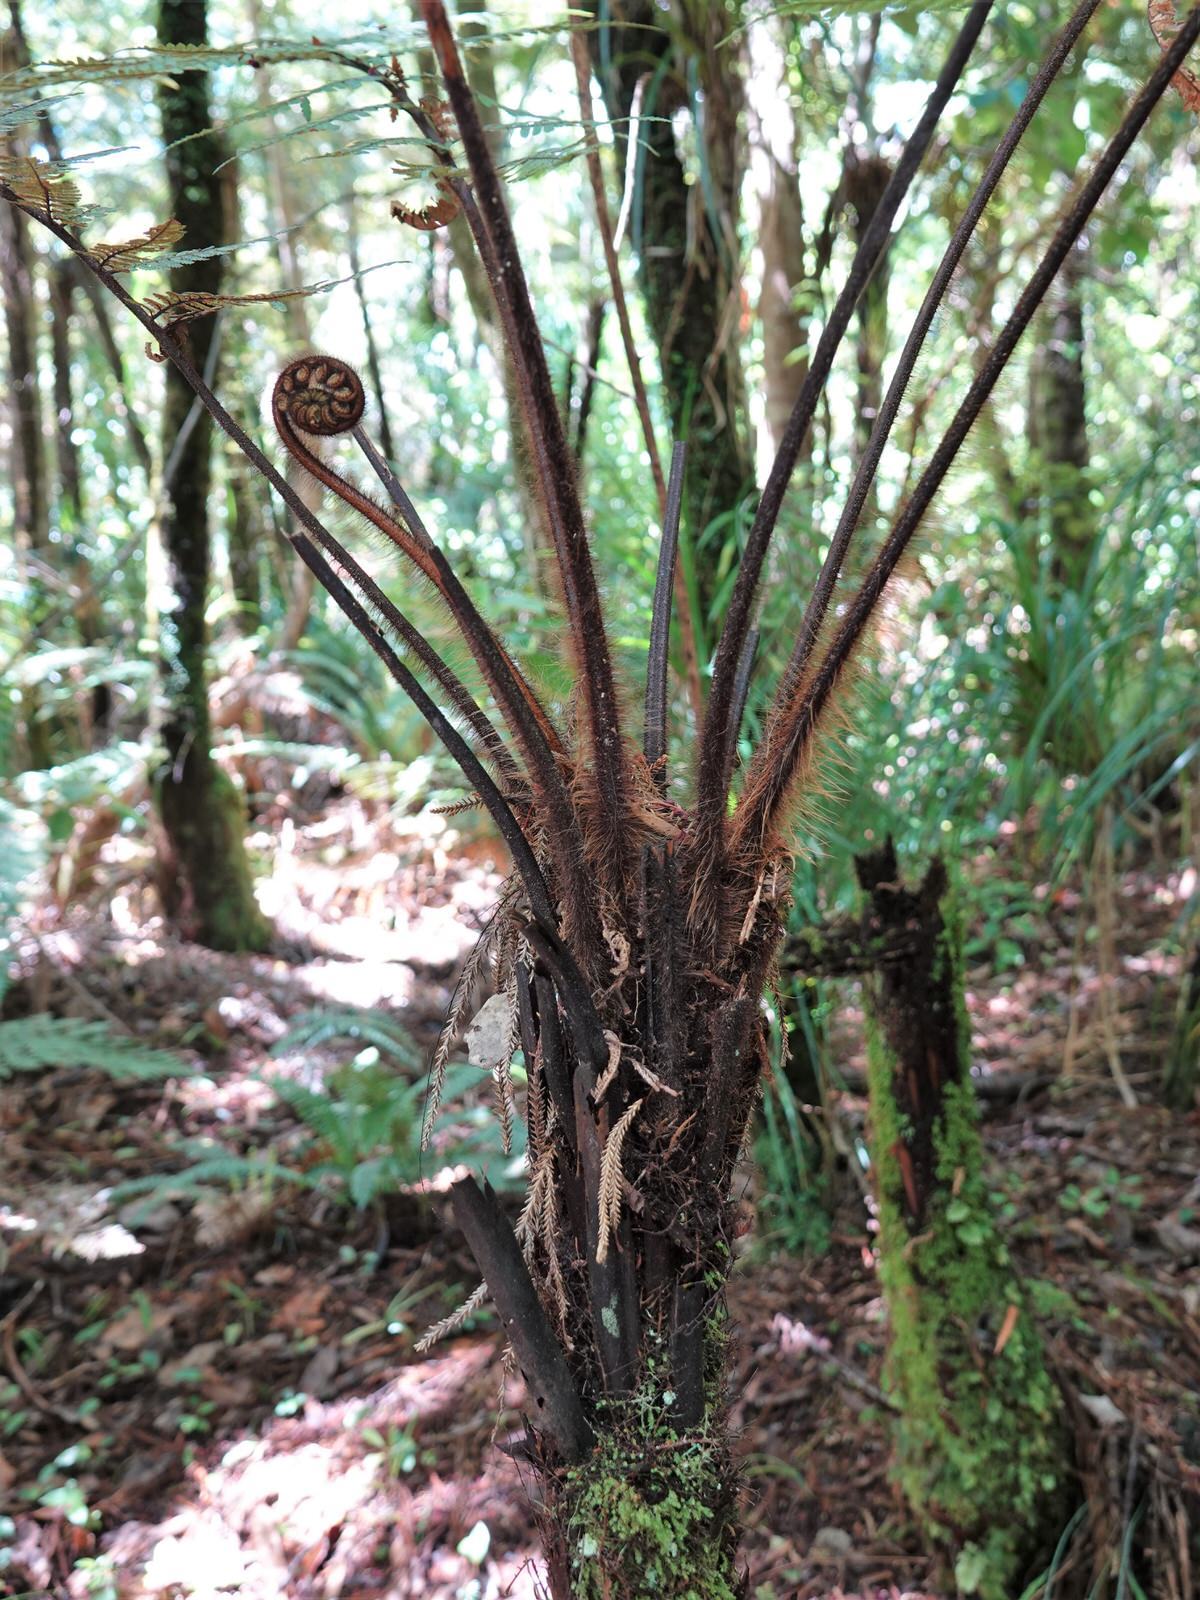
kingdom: Plantae
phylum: Tracheophyta
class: Polypodiopsida
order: Cyatheales
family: Dicksoniaceae
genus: Dicksonia
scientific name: Dicksonia squarrosa
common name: Hard treefern
